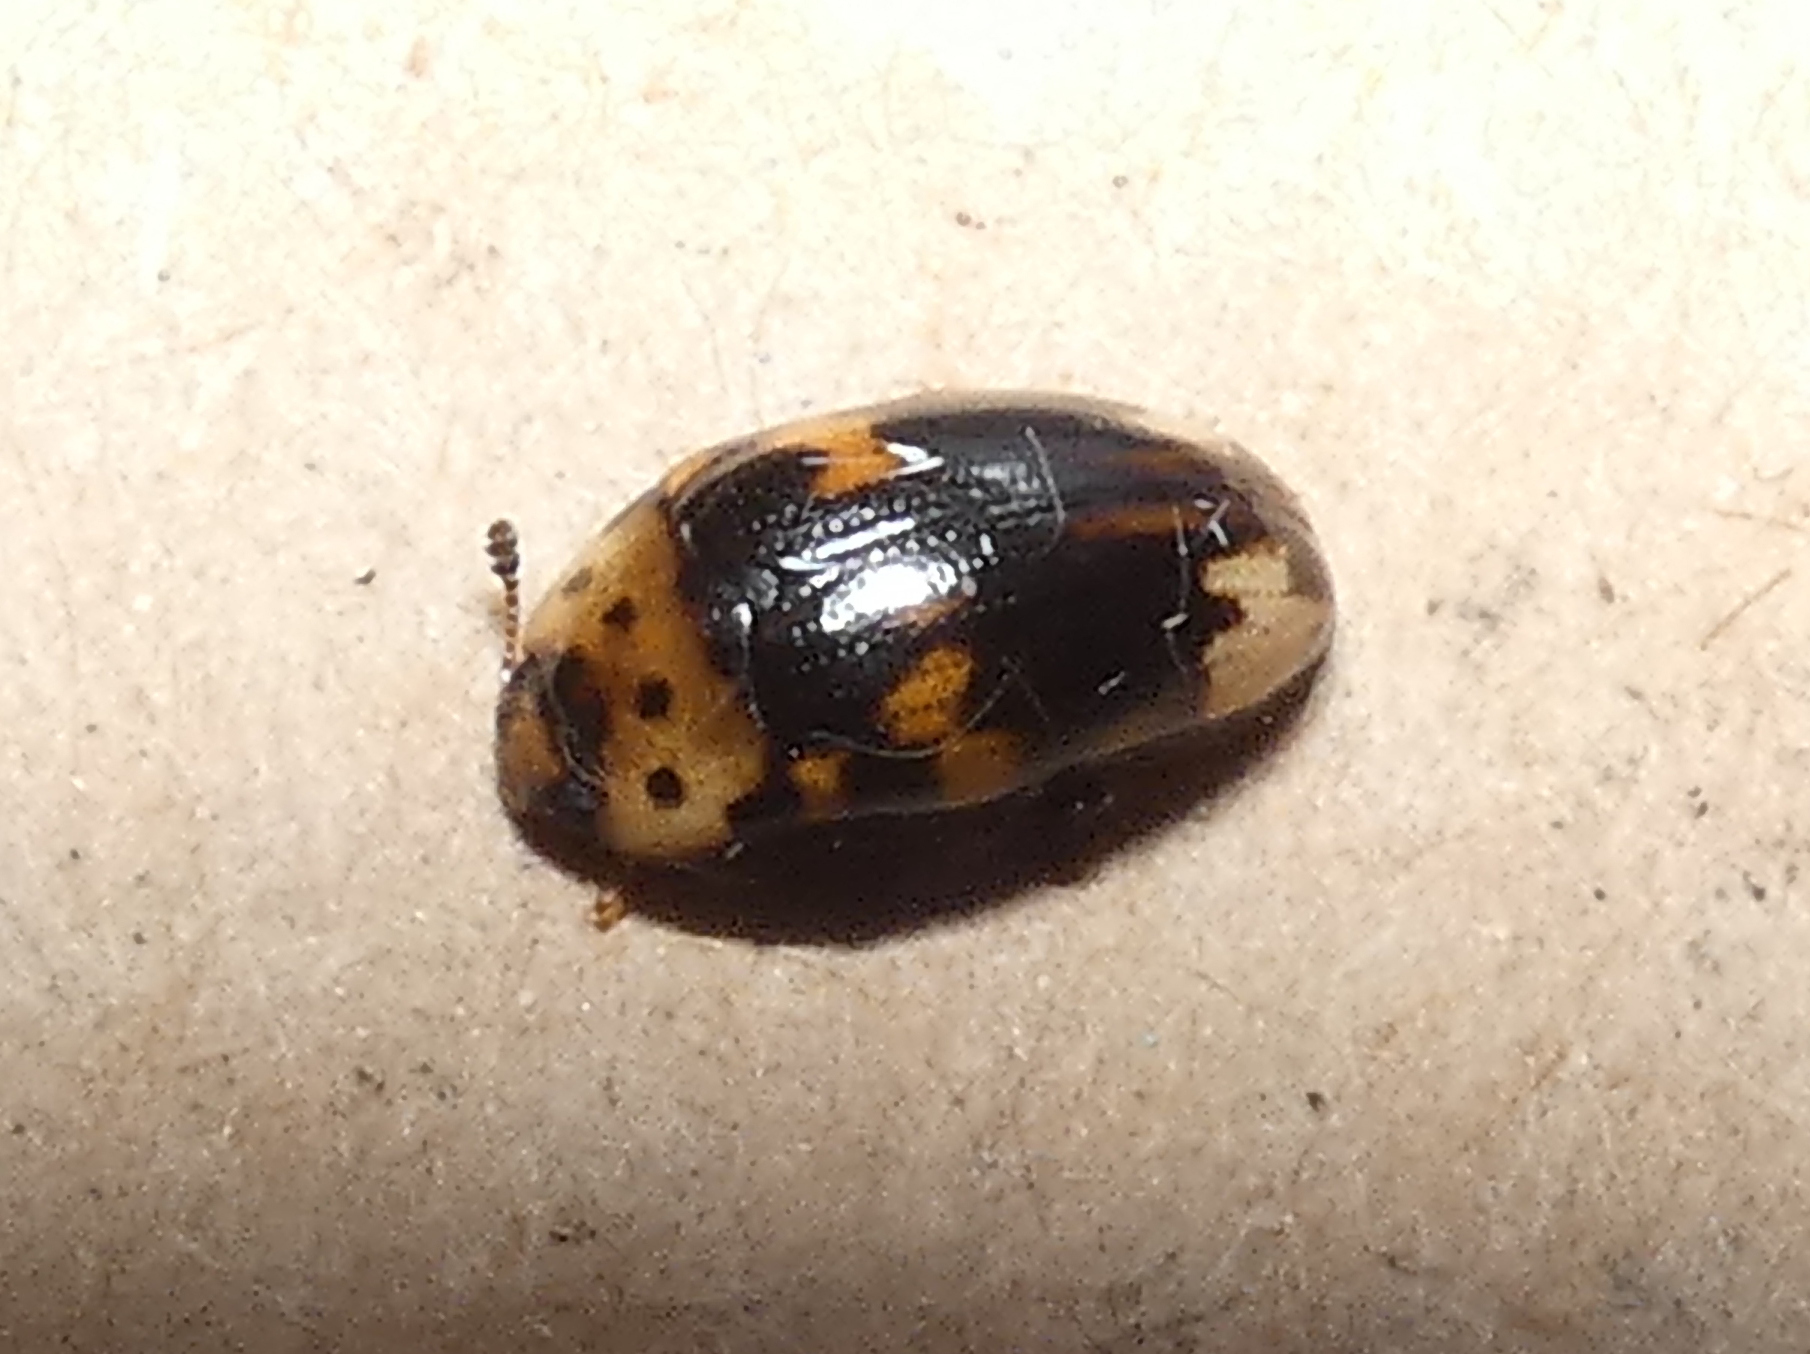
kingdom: Animalia
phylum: Arthropoda
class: Insecta
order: Coleoptera
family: Erotylidae
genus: Ischyrus
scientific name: Ischyrus
